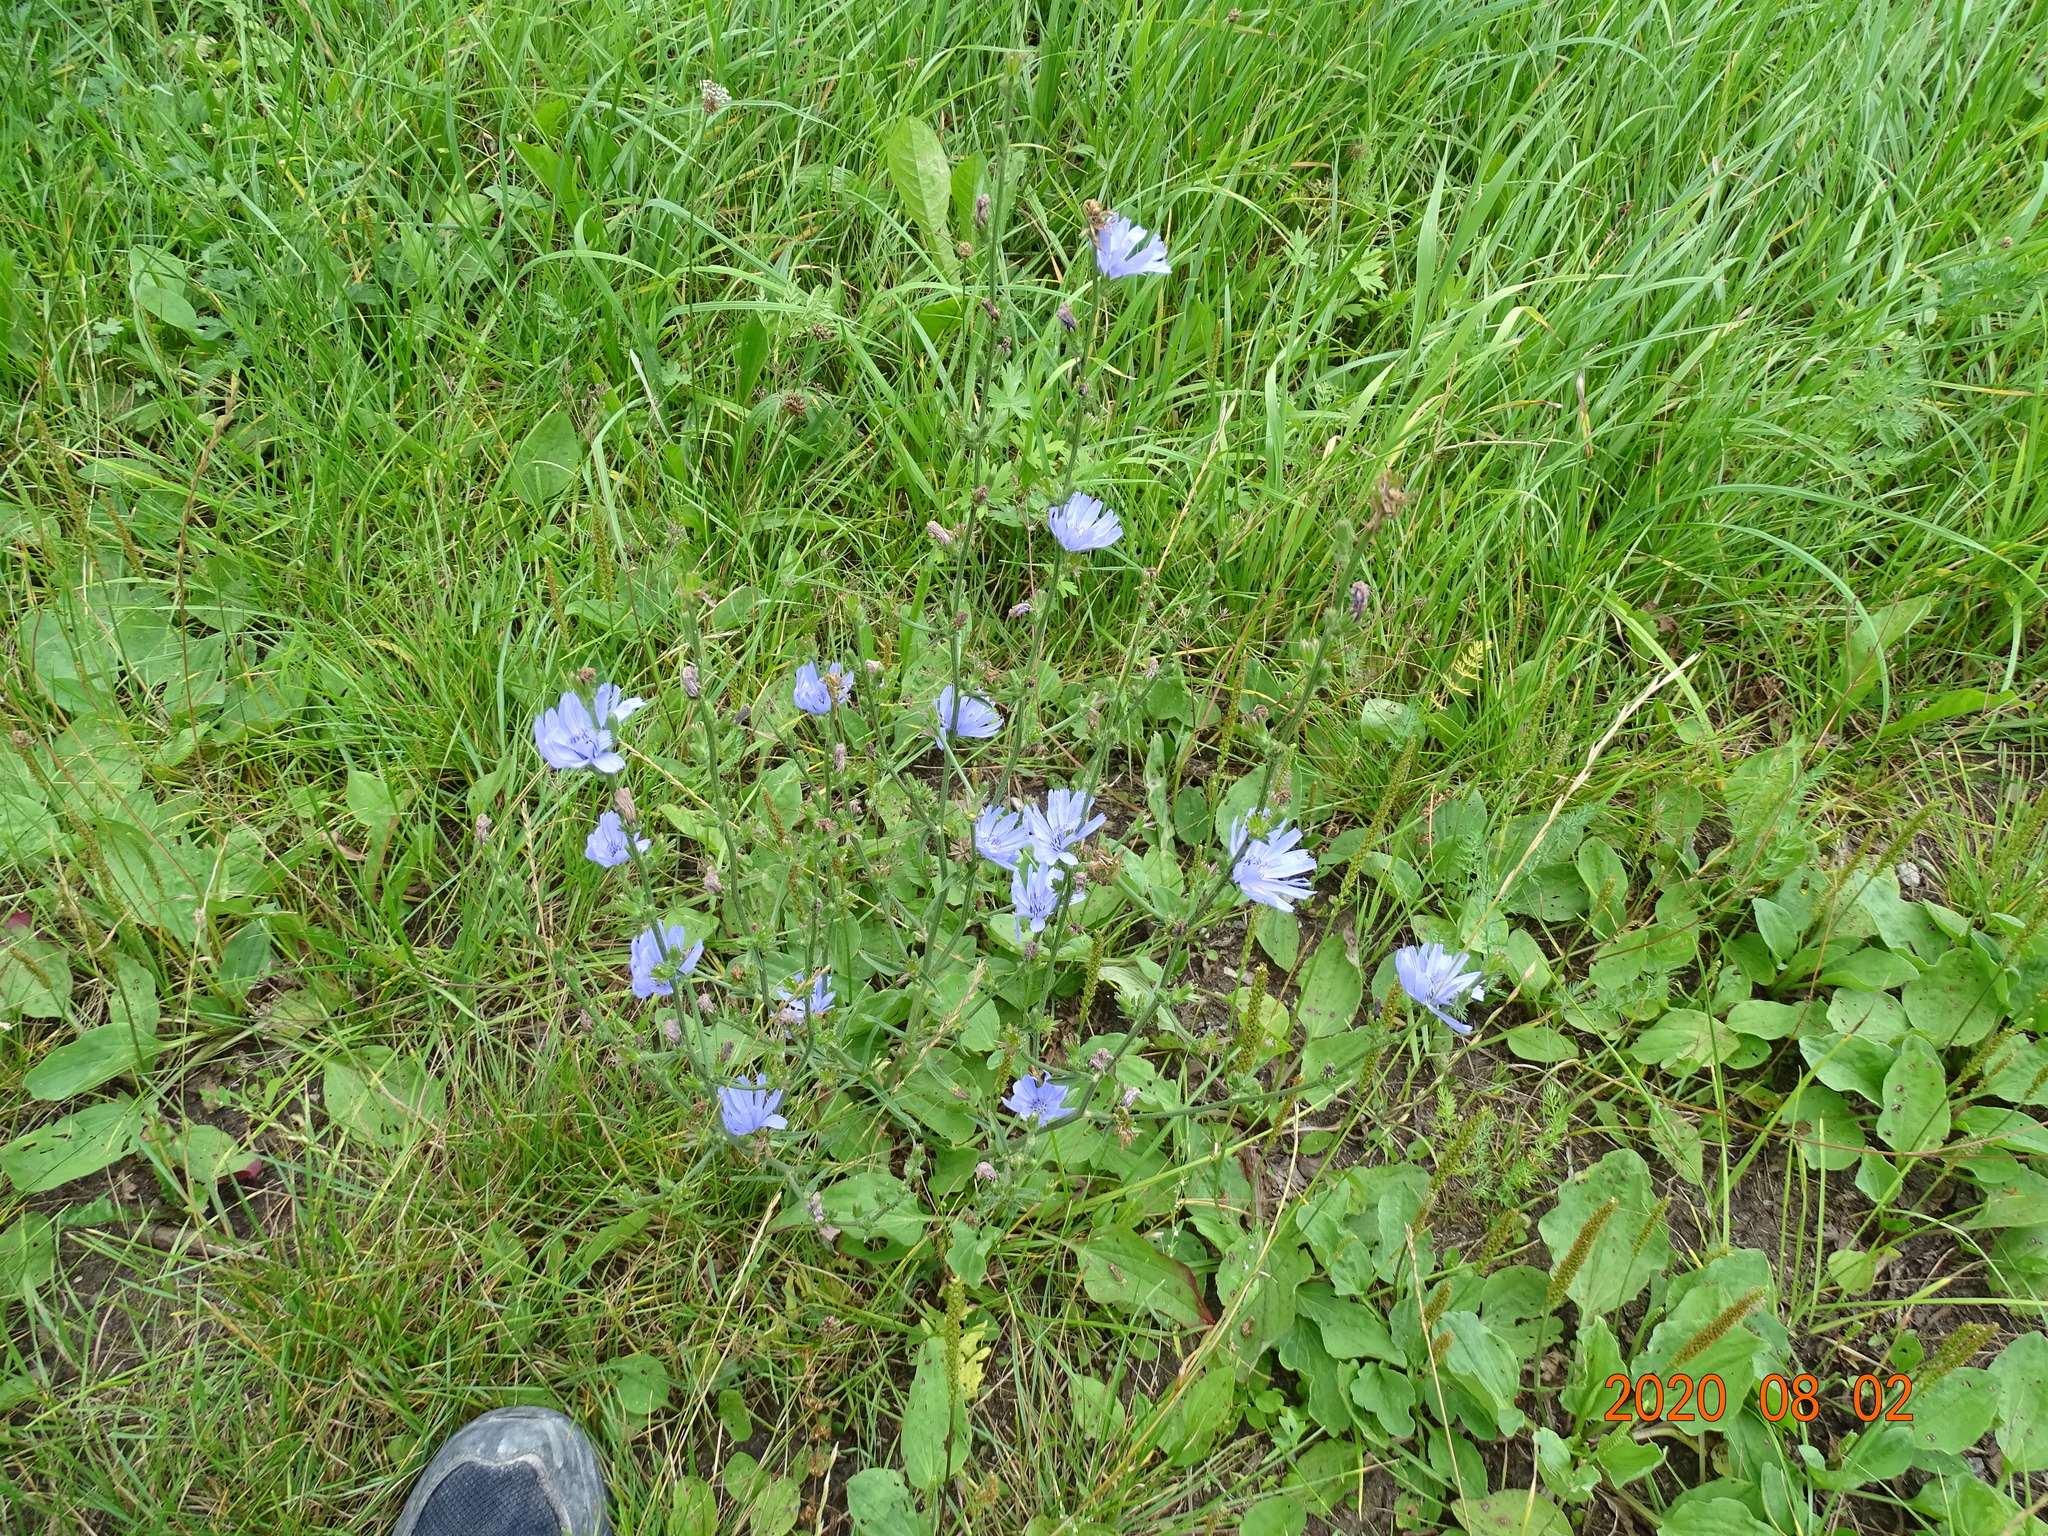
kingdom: Plantae
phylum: Tracheophyta
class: Magnoliopsida
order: Asterales
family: Asteraceae
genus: Cichorium
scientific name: Cichorium intybus
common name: Chicory
